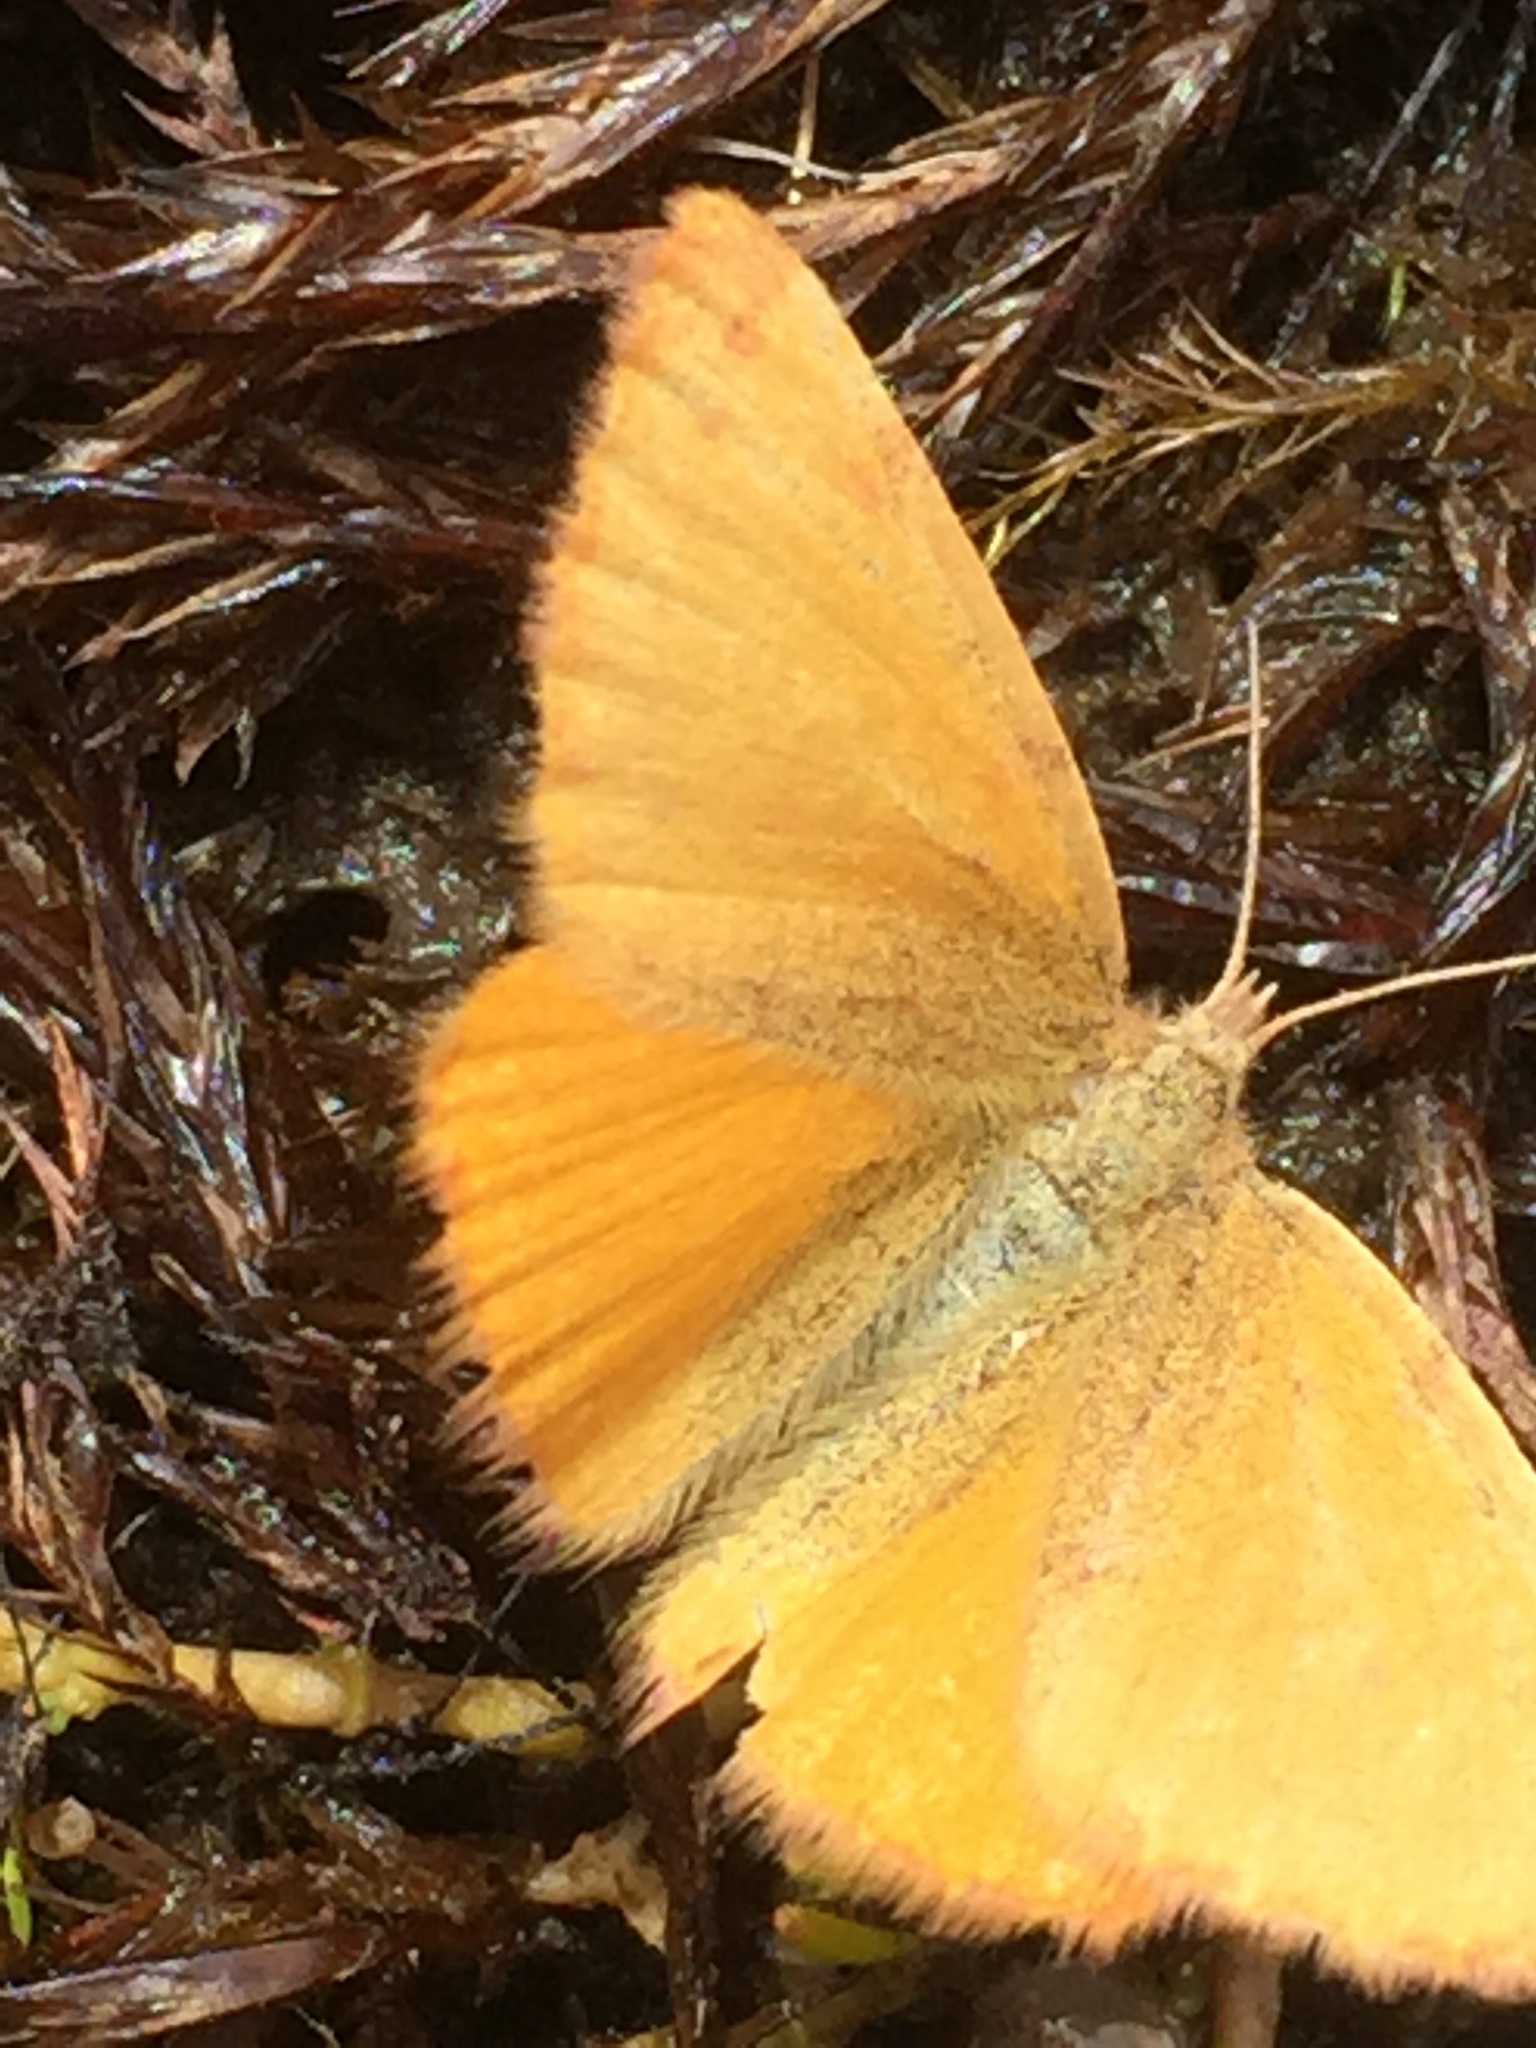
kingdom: Animalia
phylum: Arthropoda
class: Insecta
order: Lepidoptera
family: Geometridae
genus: Lythria
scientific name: Lythria cruentaria
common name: Purple-barred yellow
